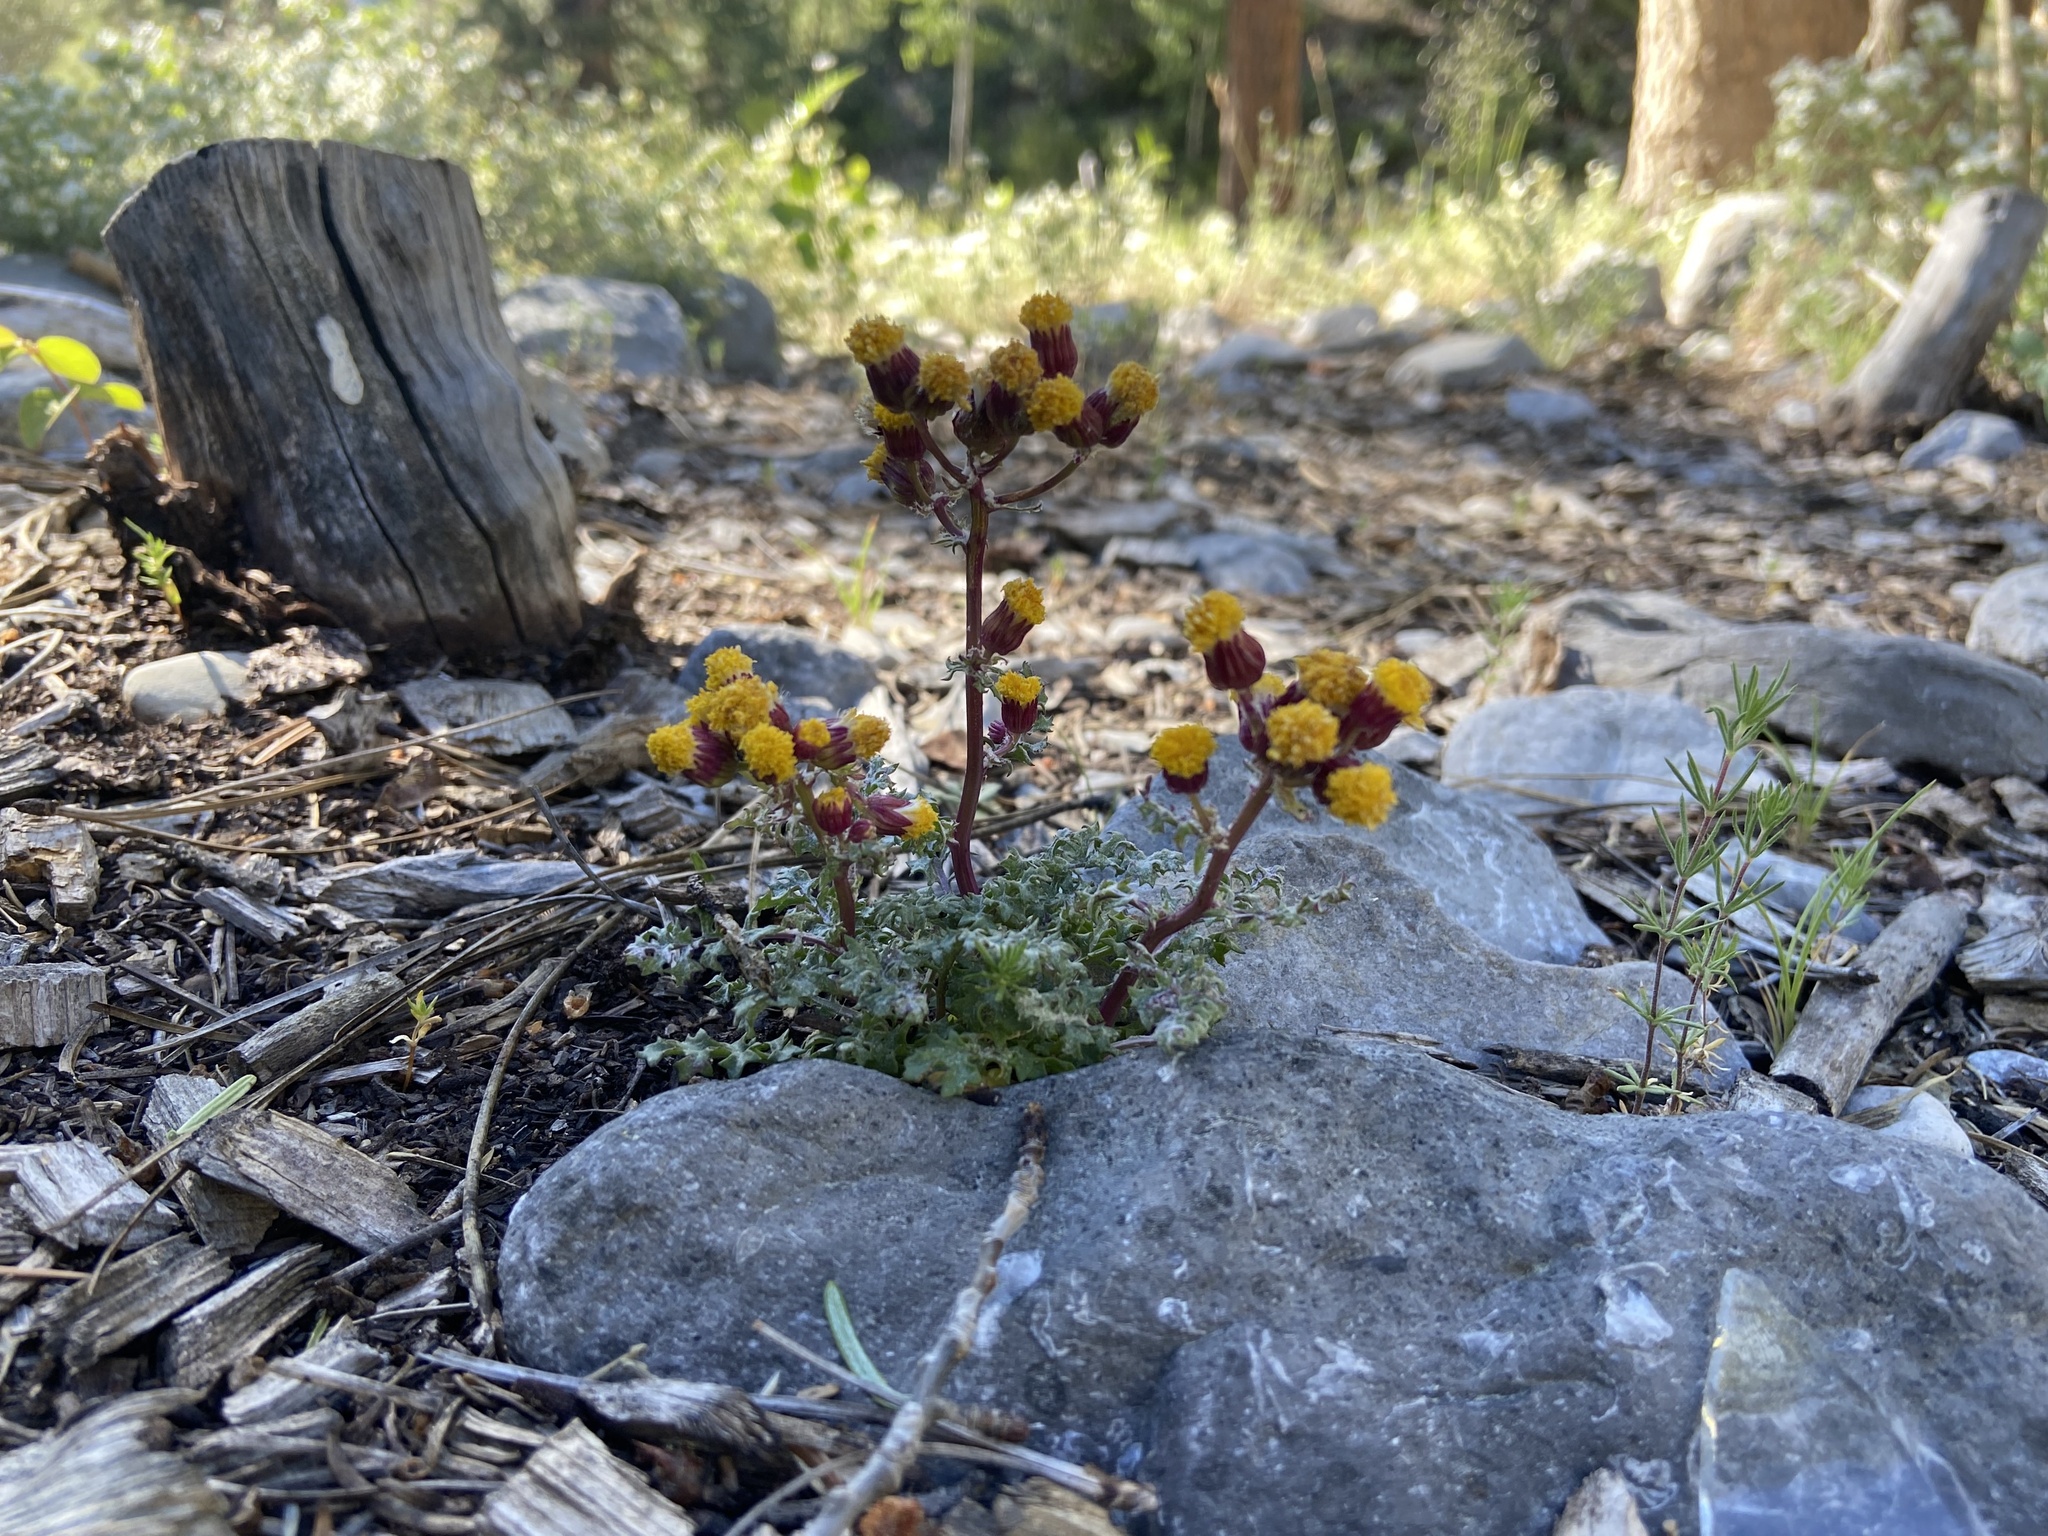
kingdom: Plantae
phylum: Tracheophyta
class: Magnoliopsida
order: Asterales
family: Asteraceae
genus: Packera
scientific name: Packera multilobata
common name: Lobe-leaf groundsel
